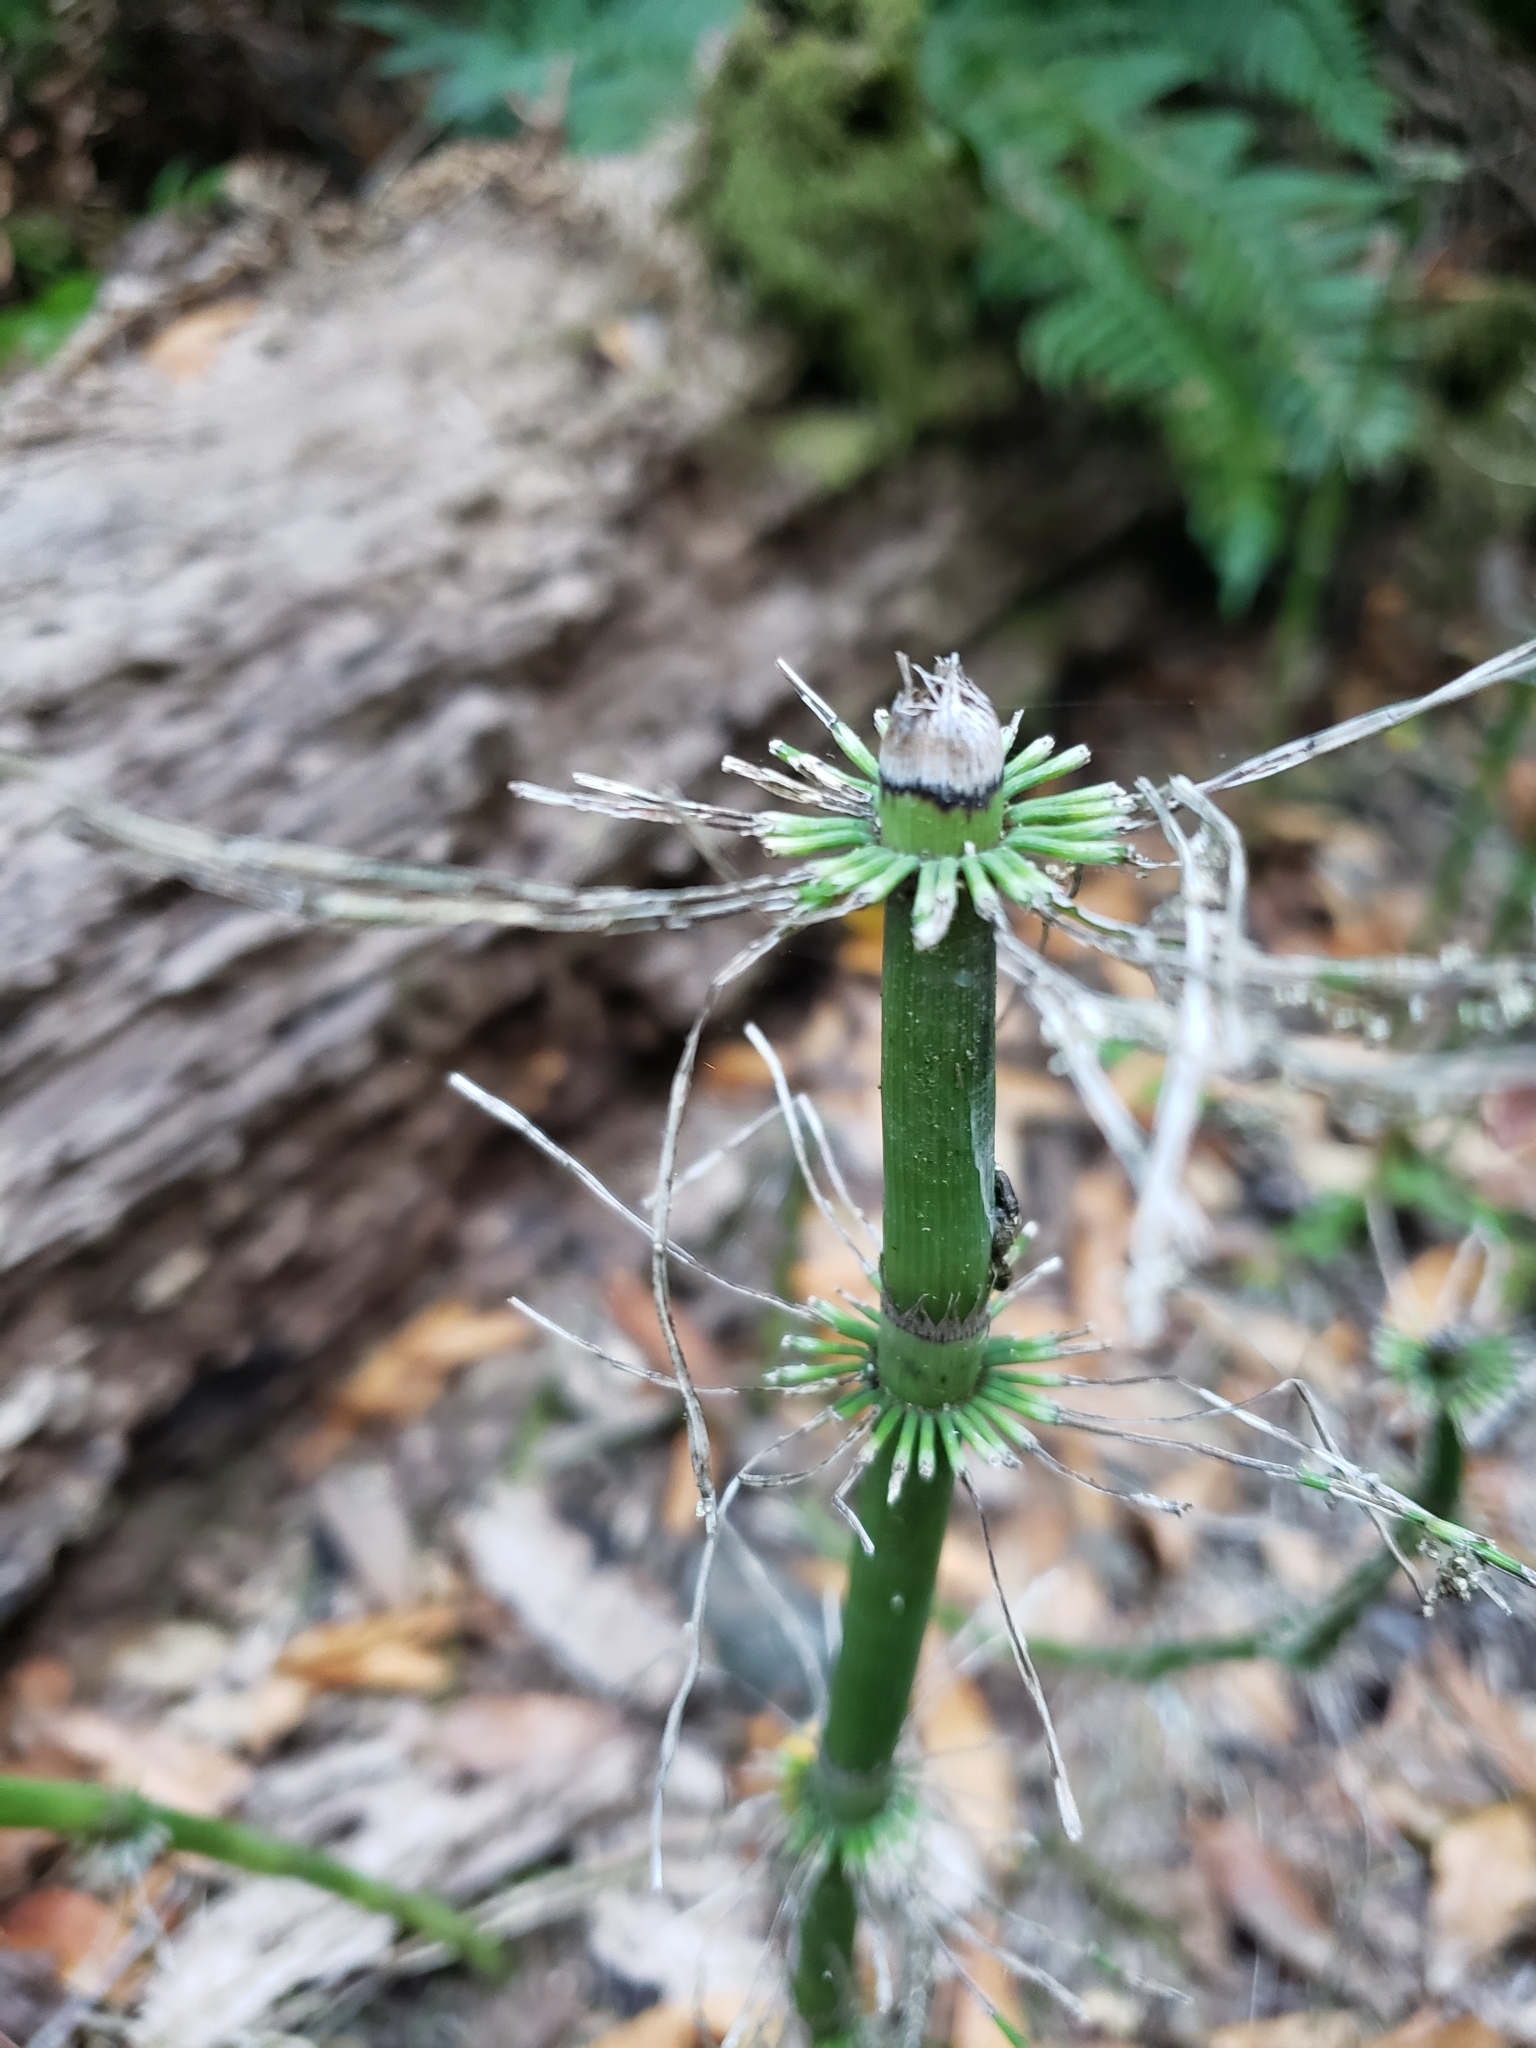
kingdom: Plantae
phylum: Tracheophyta
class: Polypodiopsida
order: Equisetales
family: Equisetaceae
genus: Equisetum
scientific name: Equisetum braunii
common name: Braun's horsetail
